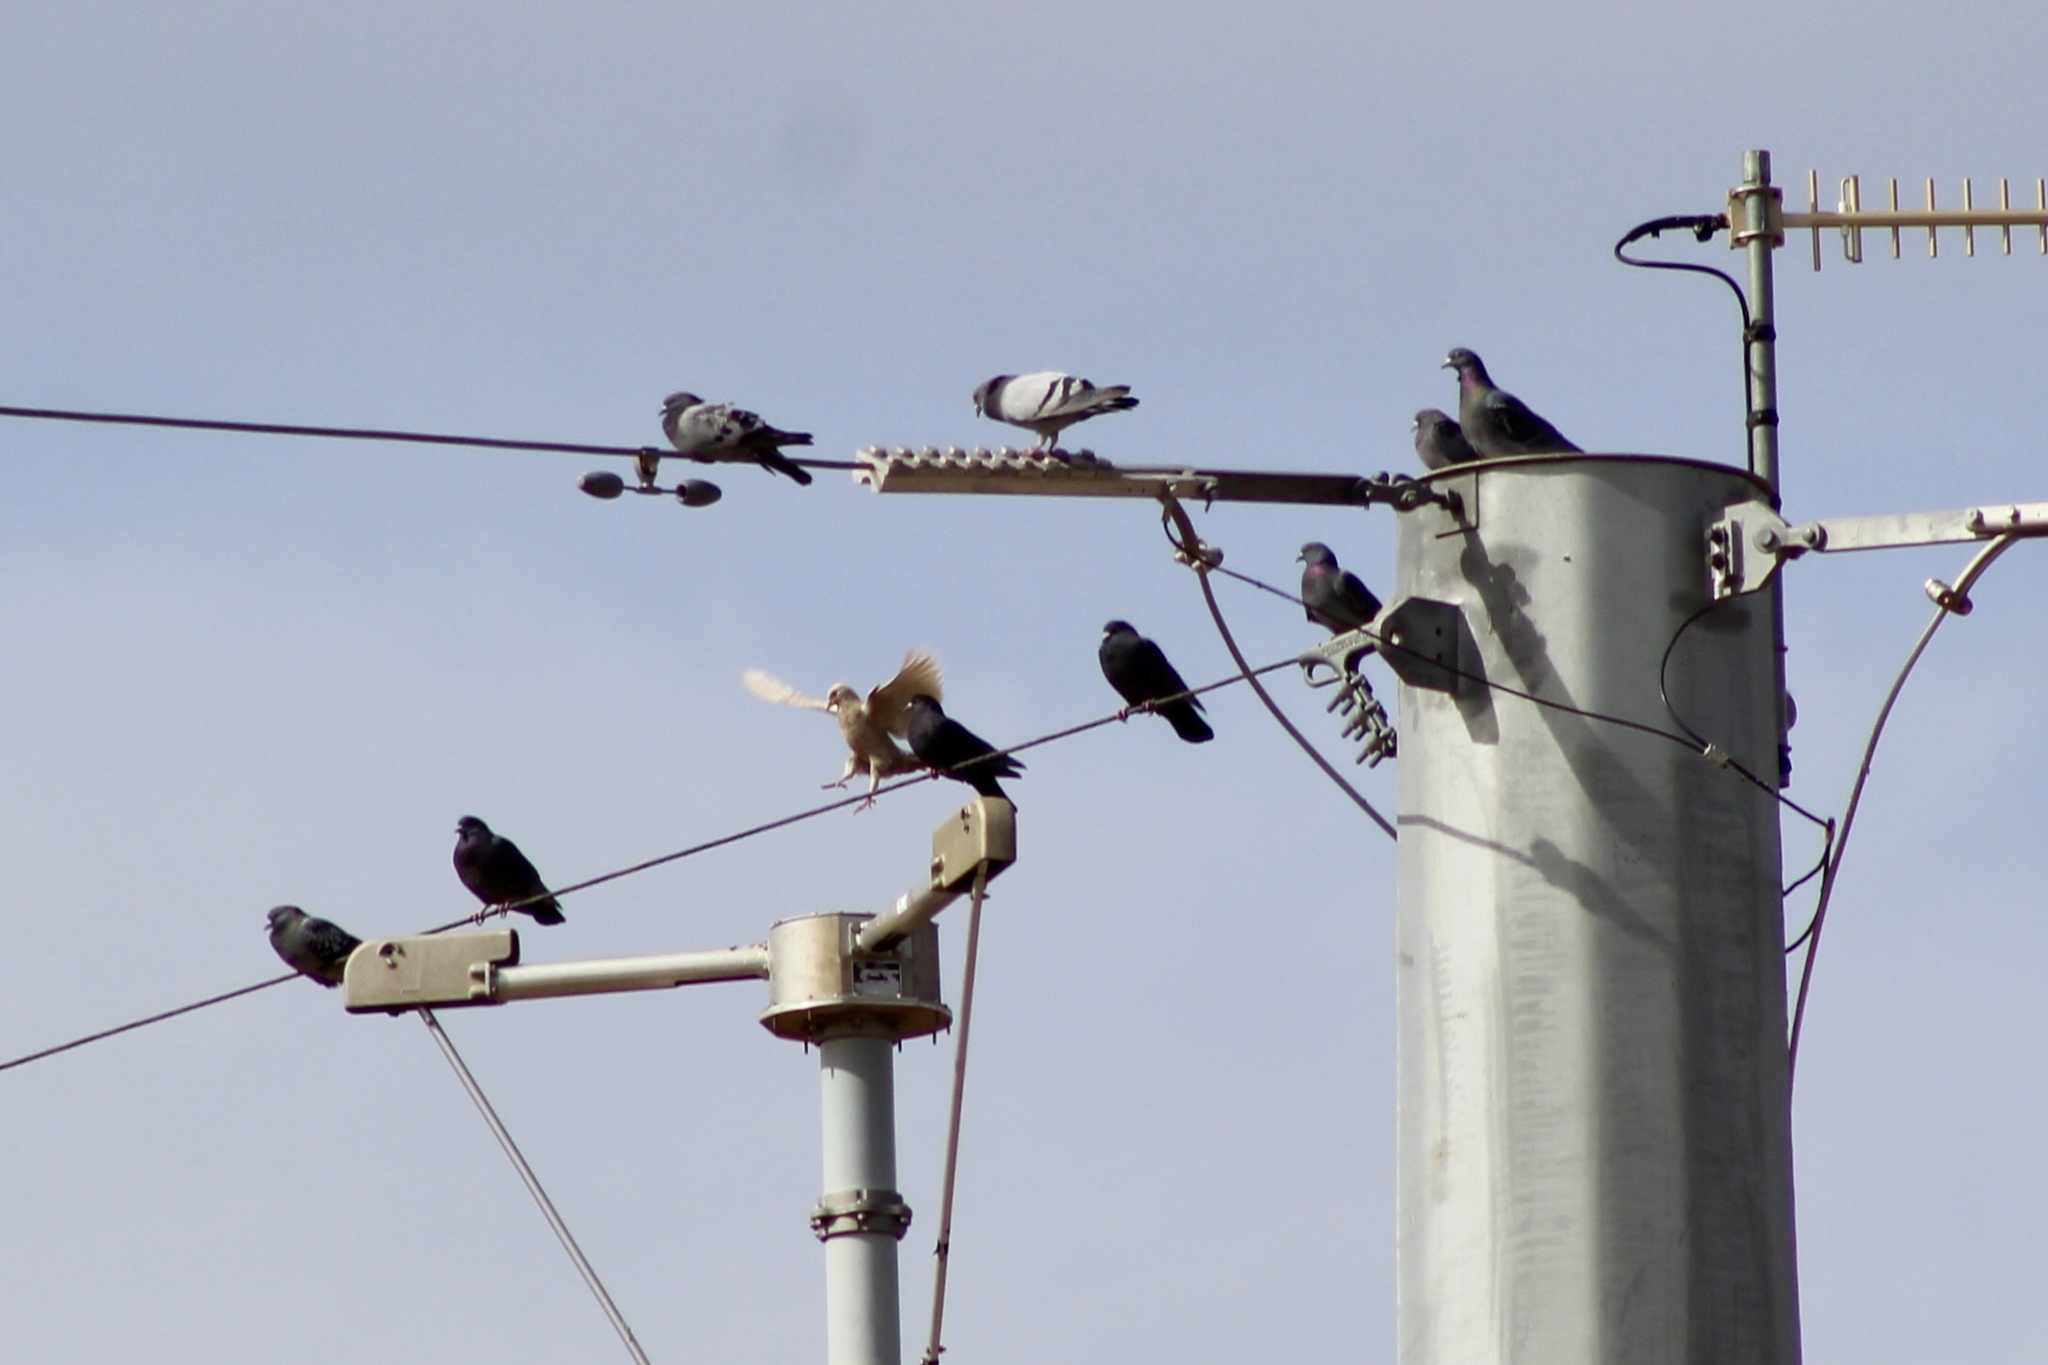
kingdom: Animalia
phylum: Chordata
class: Aves
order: Columbiformes
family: Columbidae
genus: Columba
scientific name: Columba livia
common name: Rock pigeon
